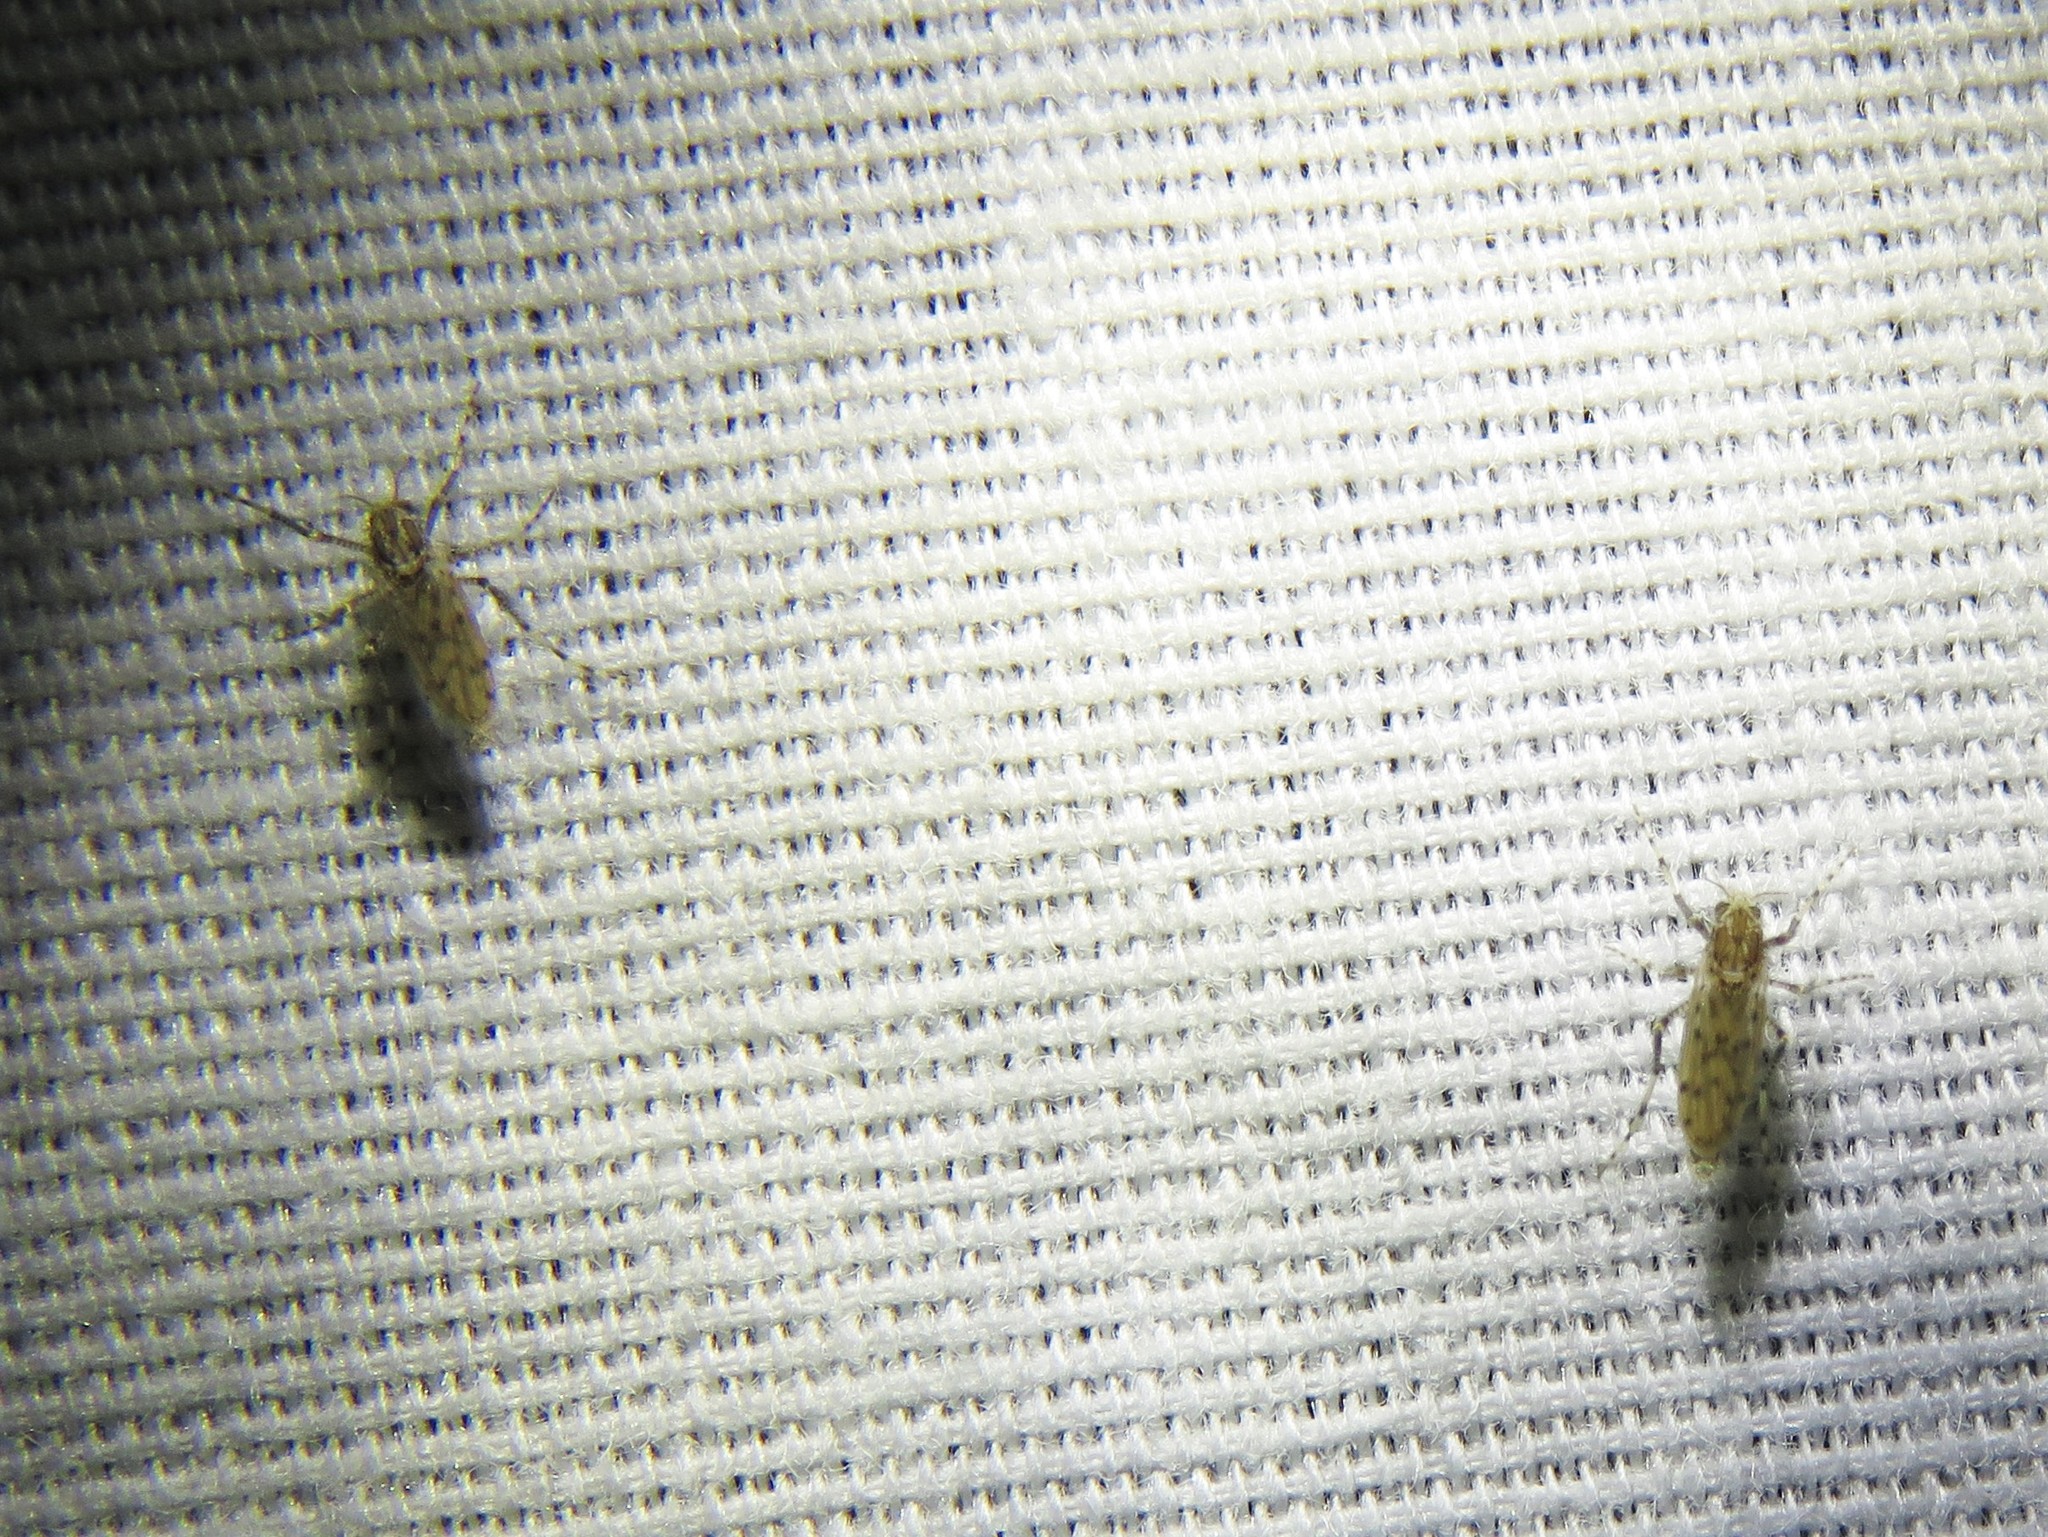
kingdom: Animalia
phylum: Arthropoda
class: Insecta
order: Diptera
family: Chaoboridae
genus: Chaoborus
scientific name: Chaoborus punctipennis
